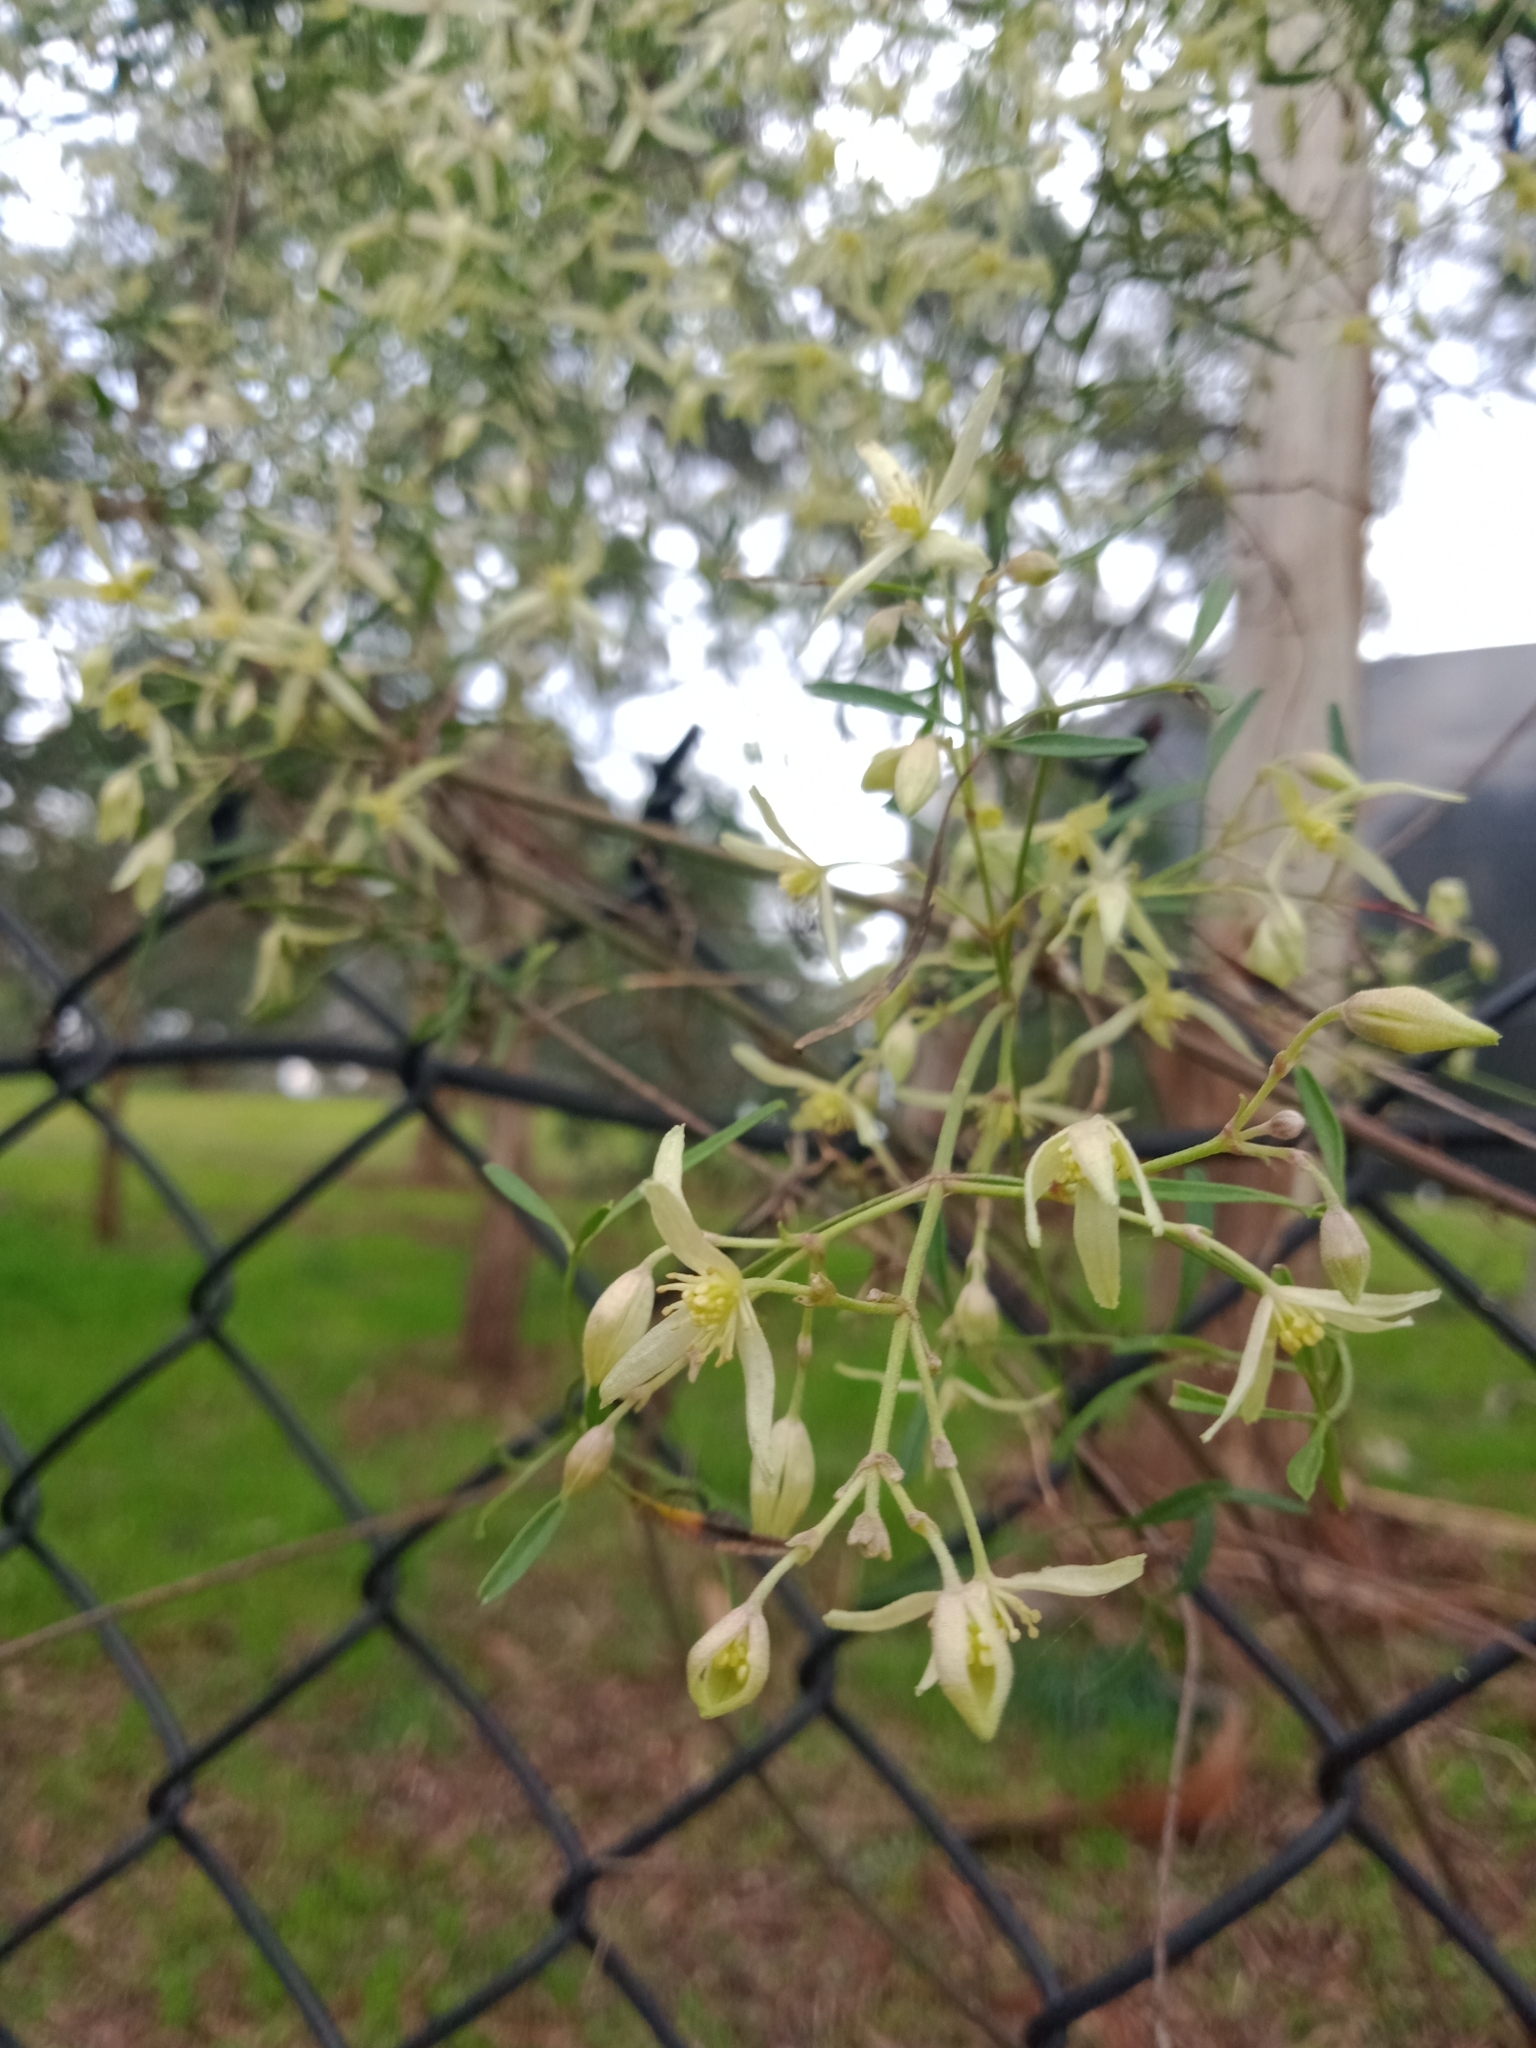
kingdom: Plantae
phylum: Tracheophyta
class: Magnoliopsida
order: Ranunculales
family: Ranunculaceae
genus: Clematis
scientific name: Clematis microphylla
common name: Headachevine
